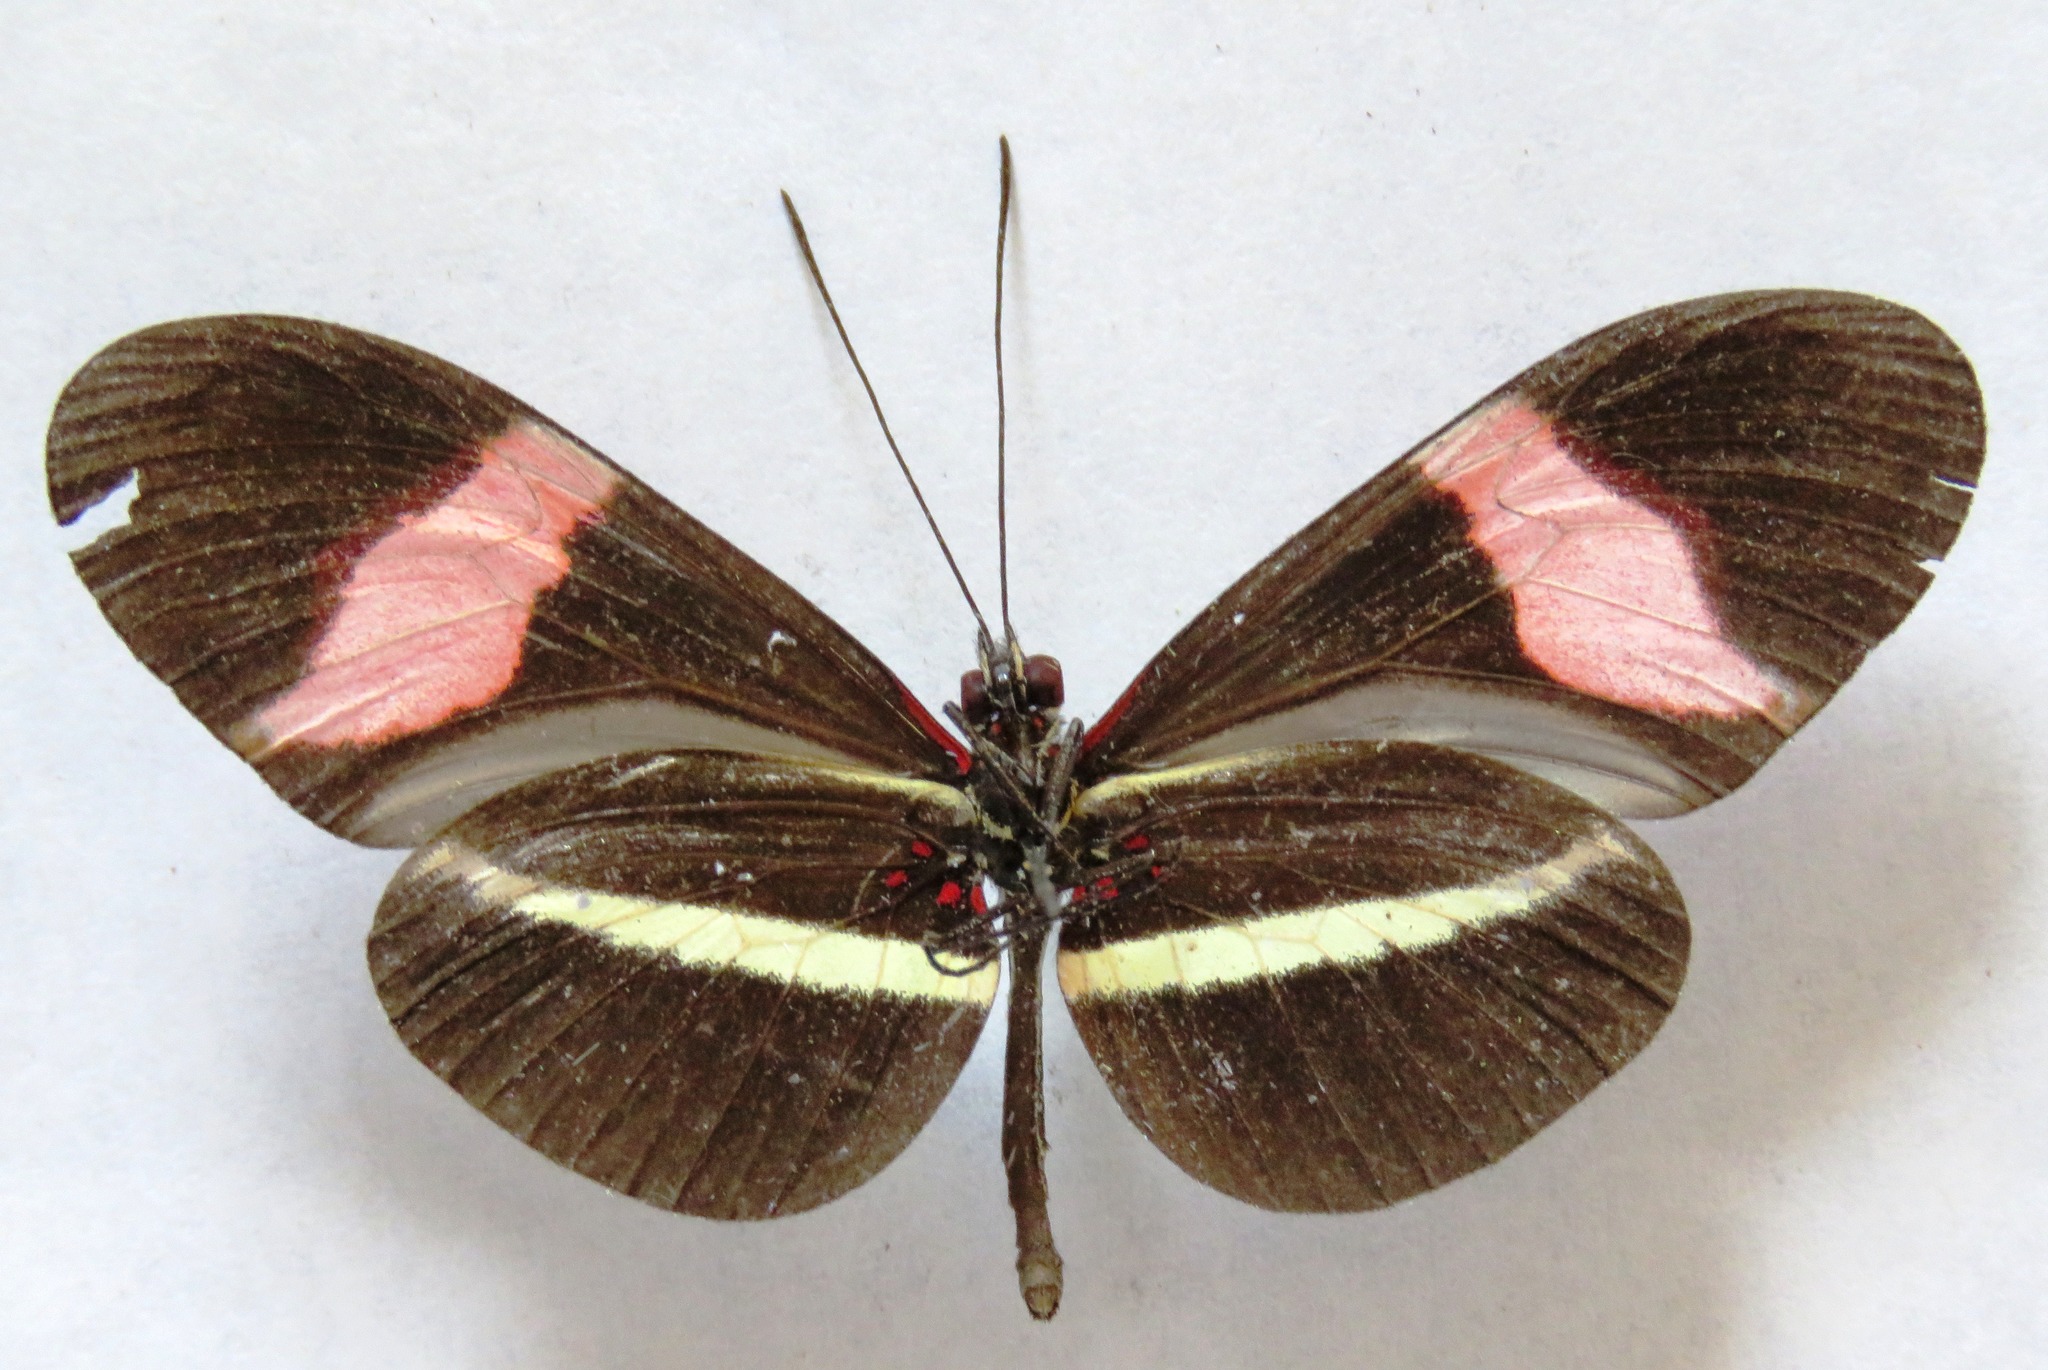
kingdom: Animalia
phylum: Arthropoda
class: Insecta
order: Lepidoptera
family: Nymphalidae
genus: Tirumala
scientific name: Tirumala petiverana
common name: Blue monarch
